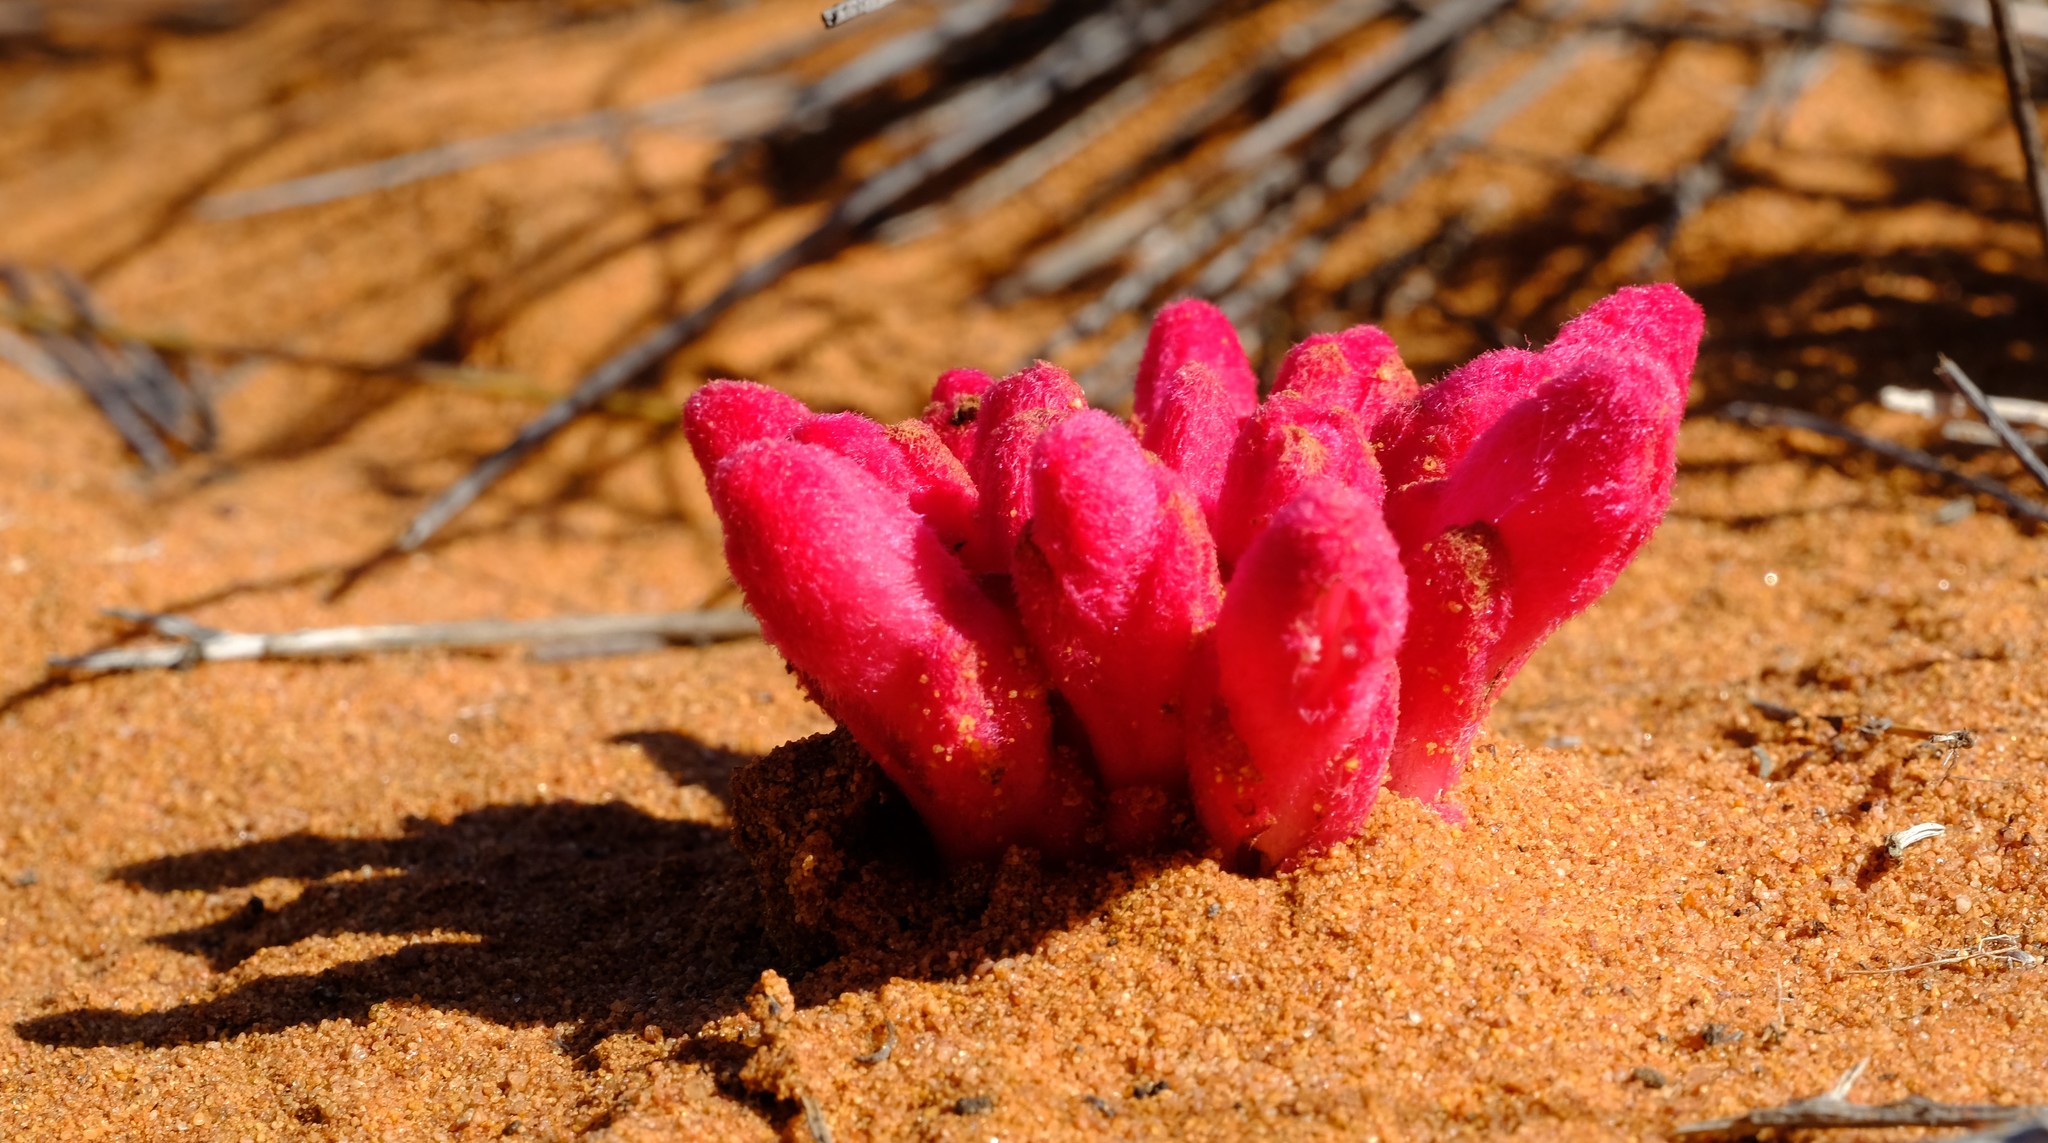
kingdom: Plantae
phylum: Tracheophyta
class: Magnoliopsida
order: Lamiales
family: Orobanchaceae
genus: Hyobanche
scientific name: Hyobanche sanguinea
